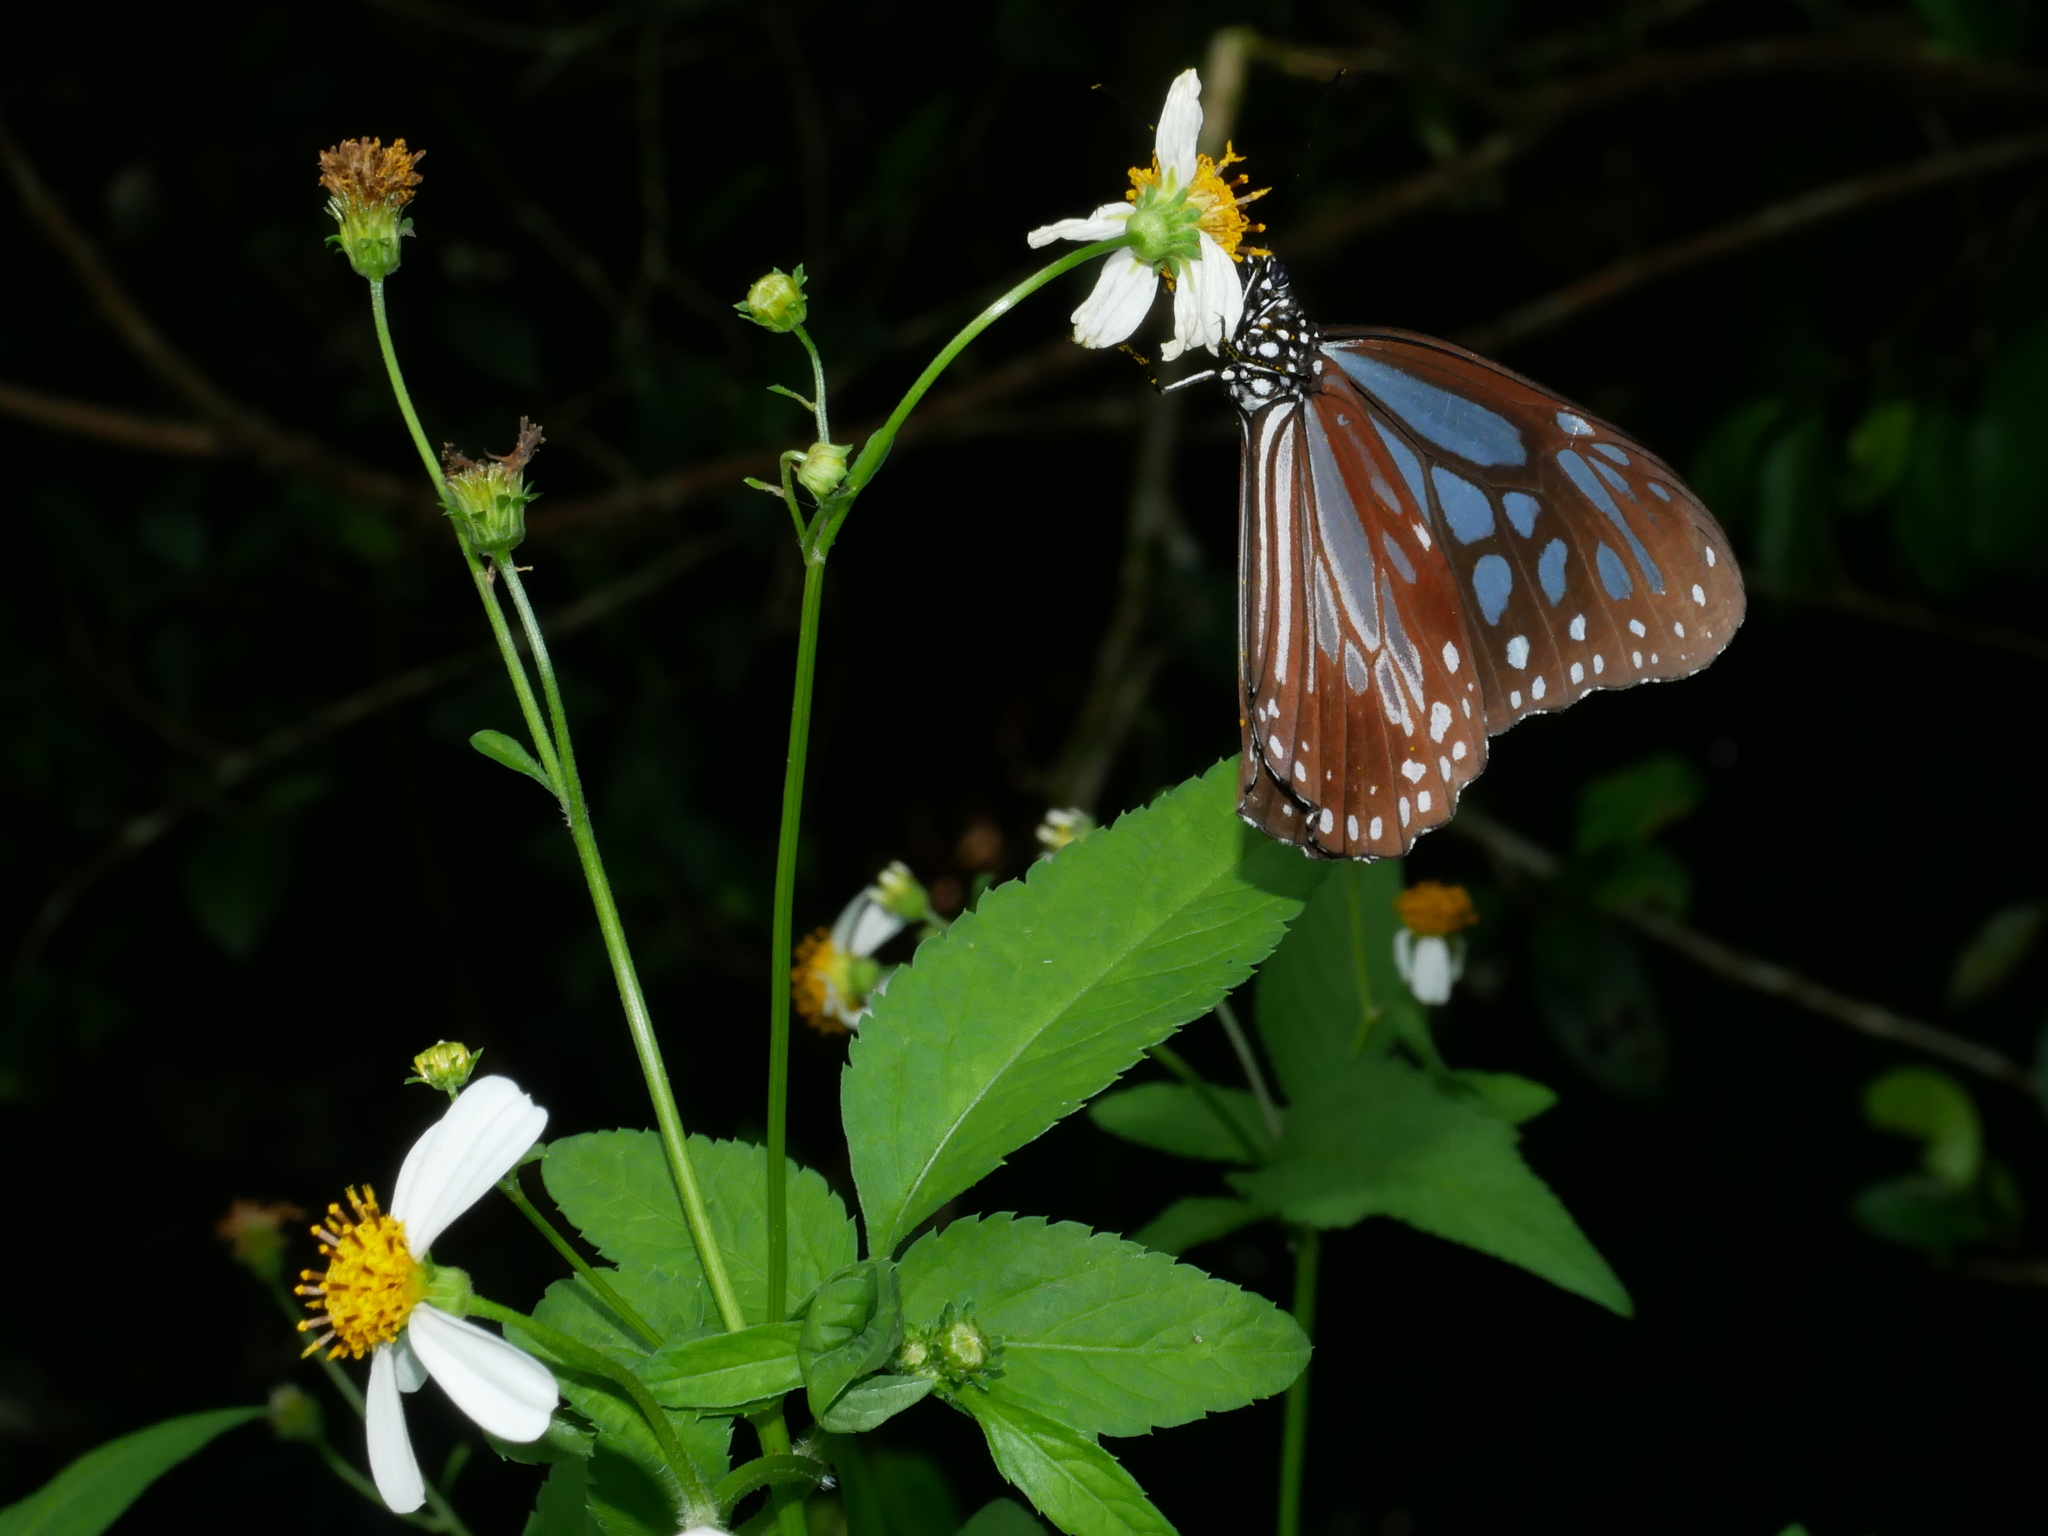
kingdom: Animalia
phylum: Arthropoda
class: Insecta
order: Lepidoptera
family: Nymphalidae
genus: Parantica
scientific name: Parantica melaneus
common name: Chocolate tiger
